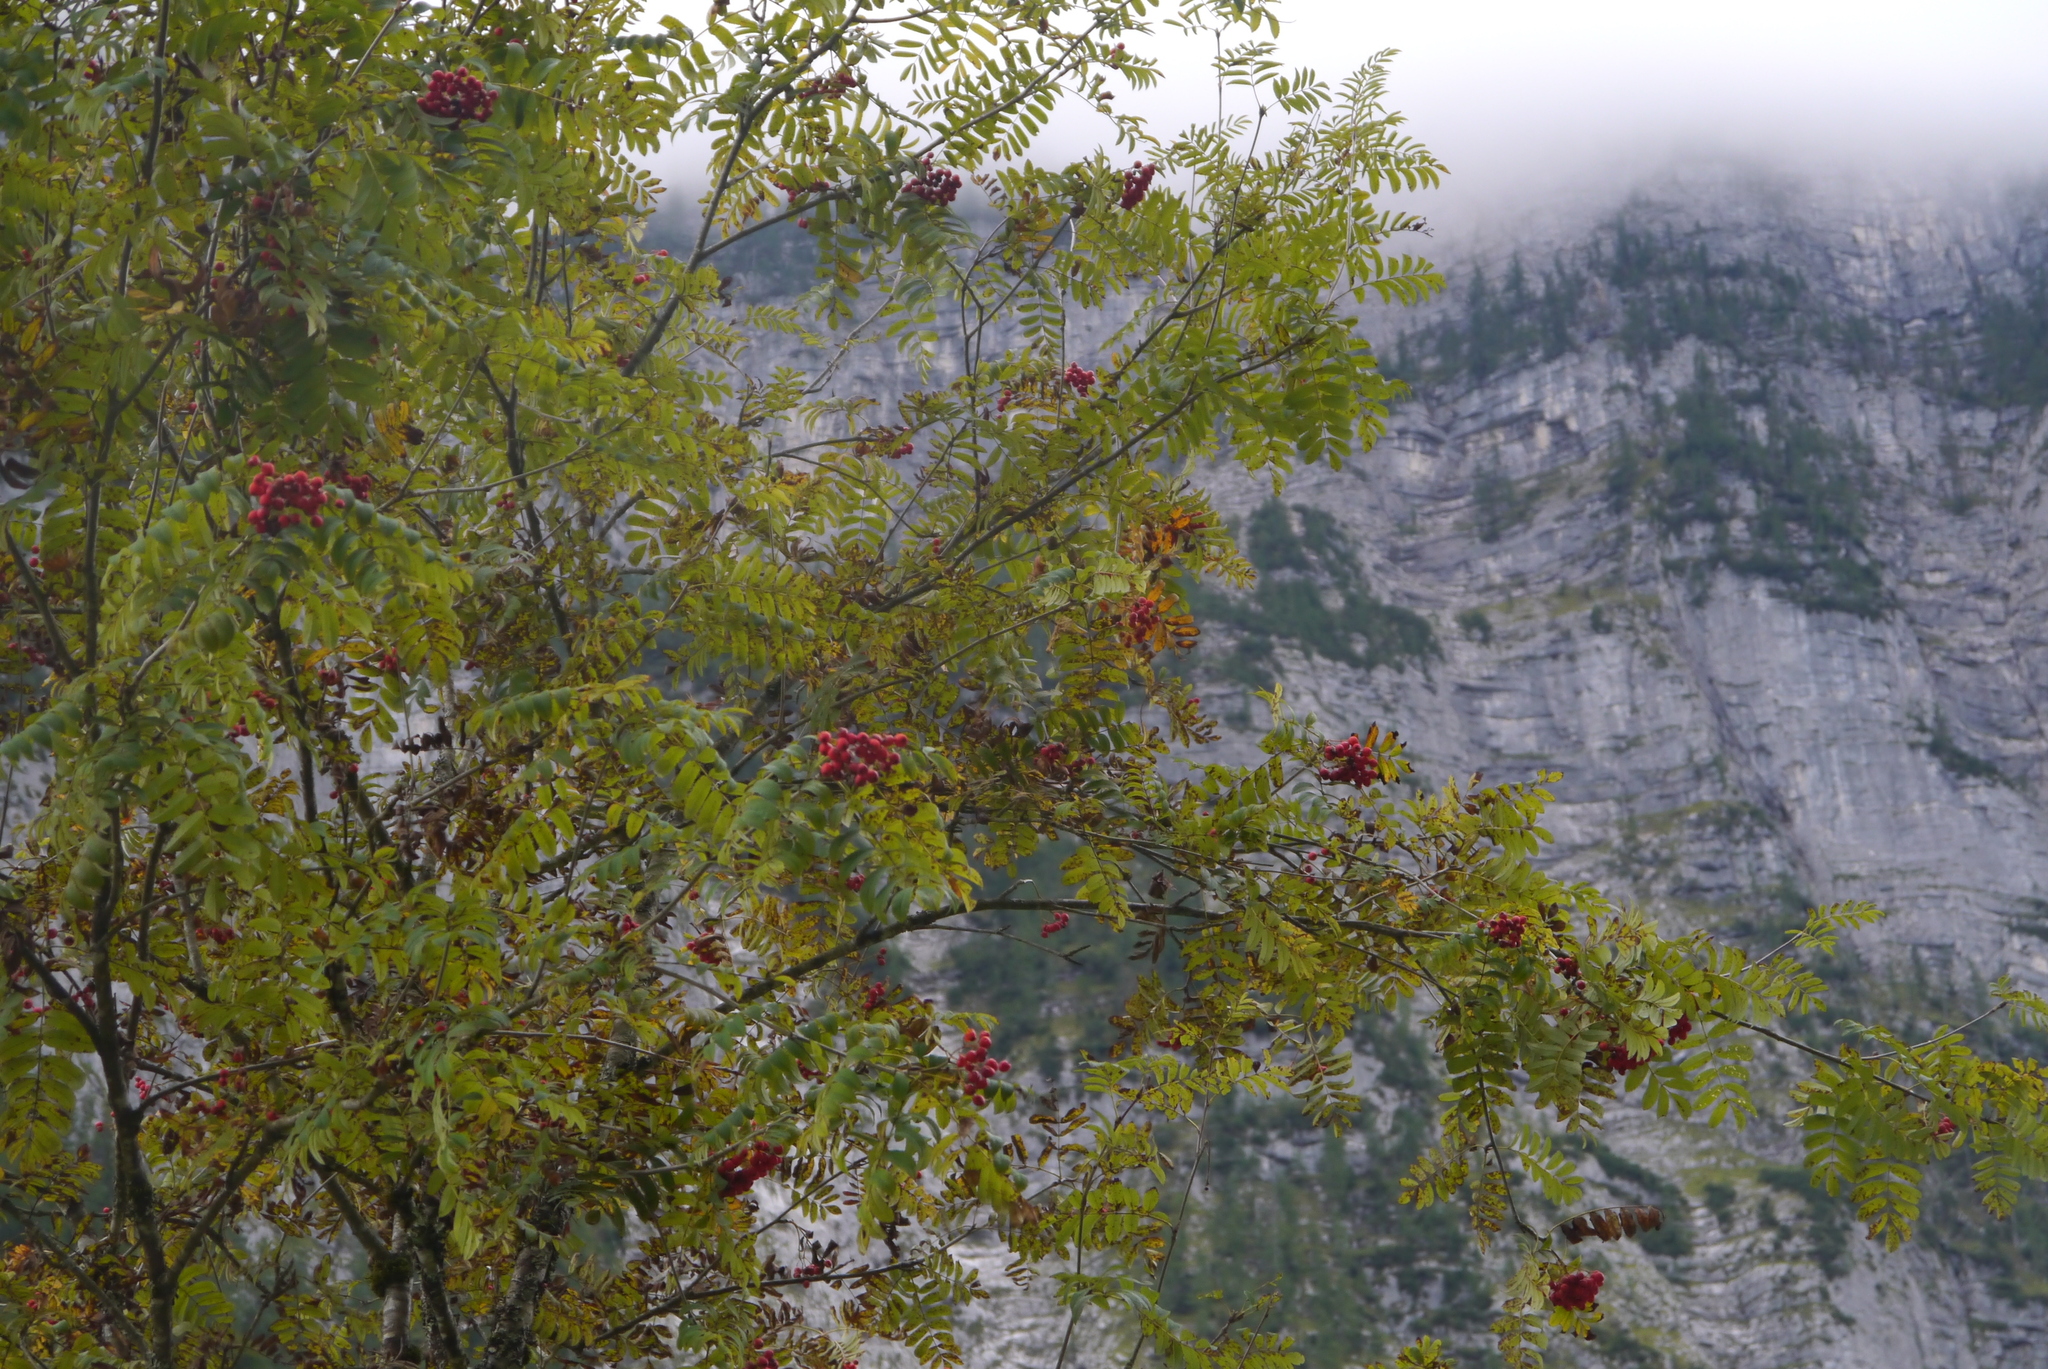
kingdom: Plantae
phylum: Tracheophyta
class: Magnoliopsida
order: Rosales
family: Rosaceae
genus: Sorbus
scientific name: Sorbus aucuparia
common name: Rowan
